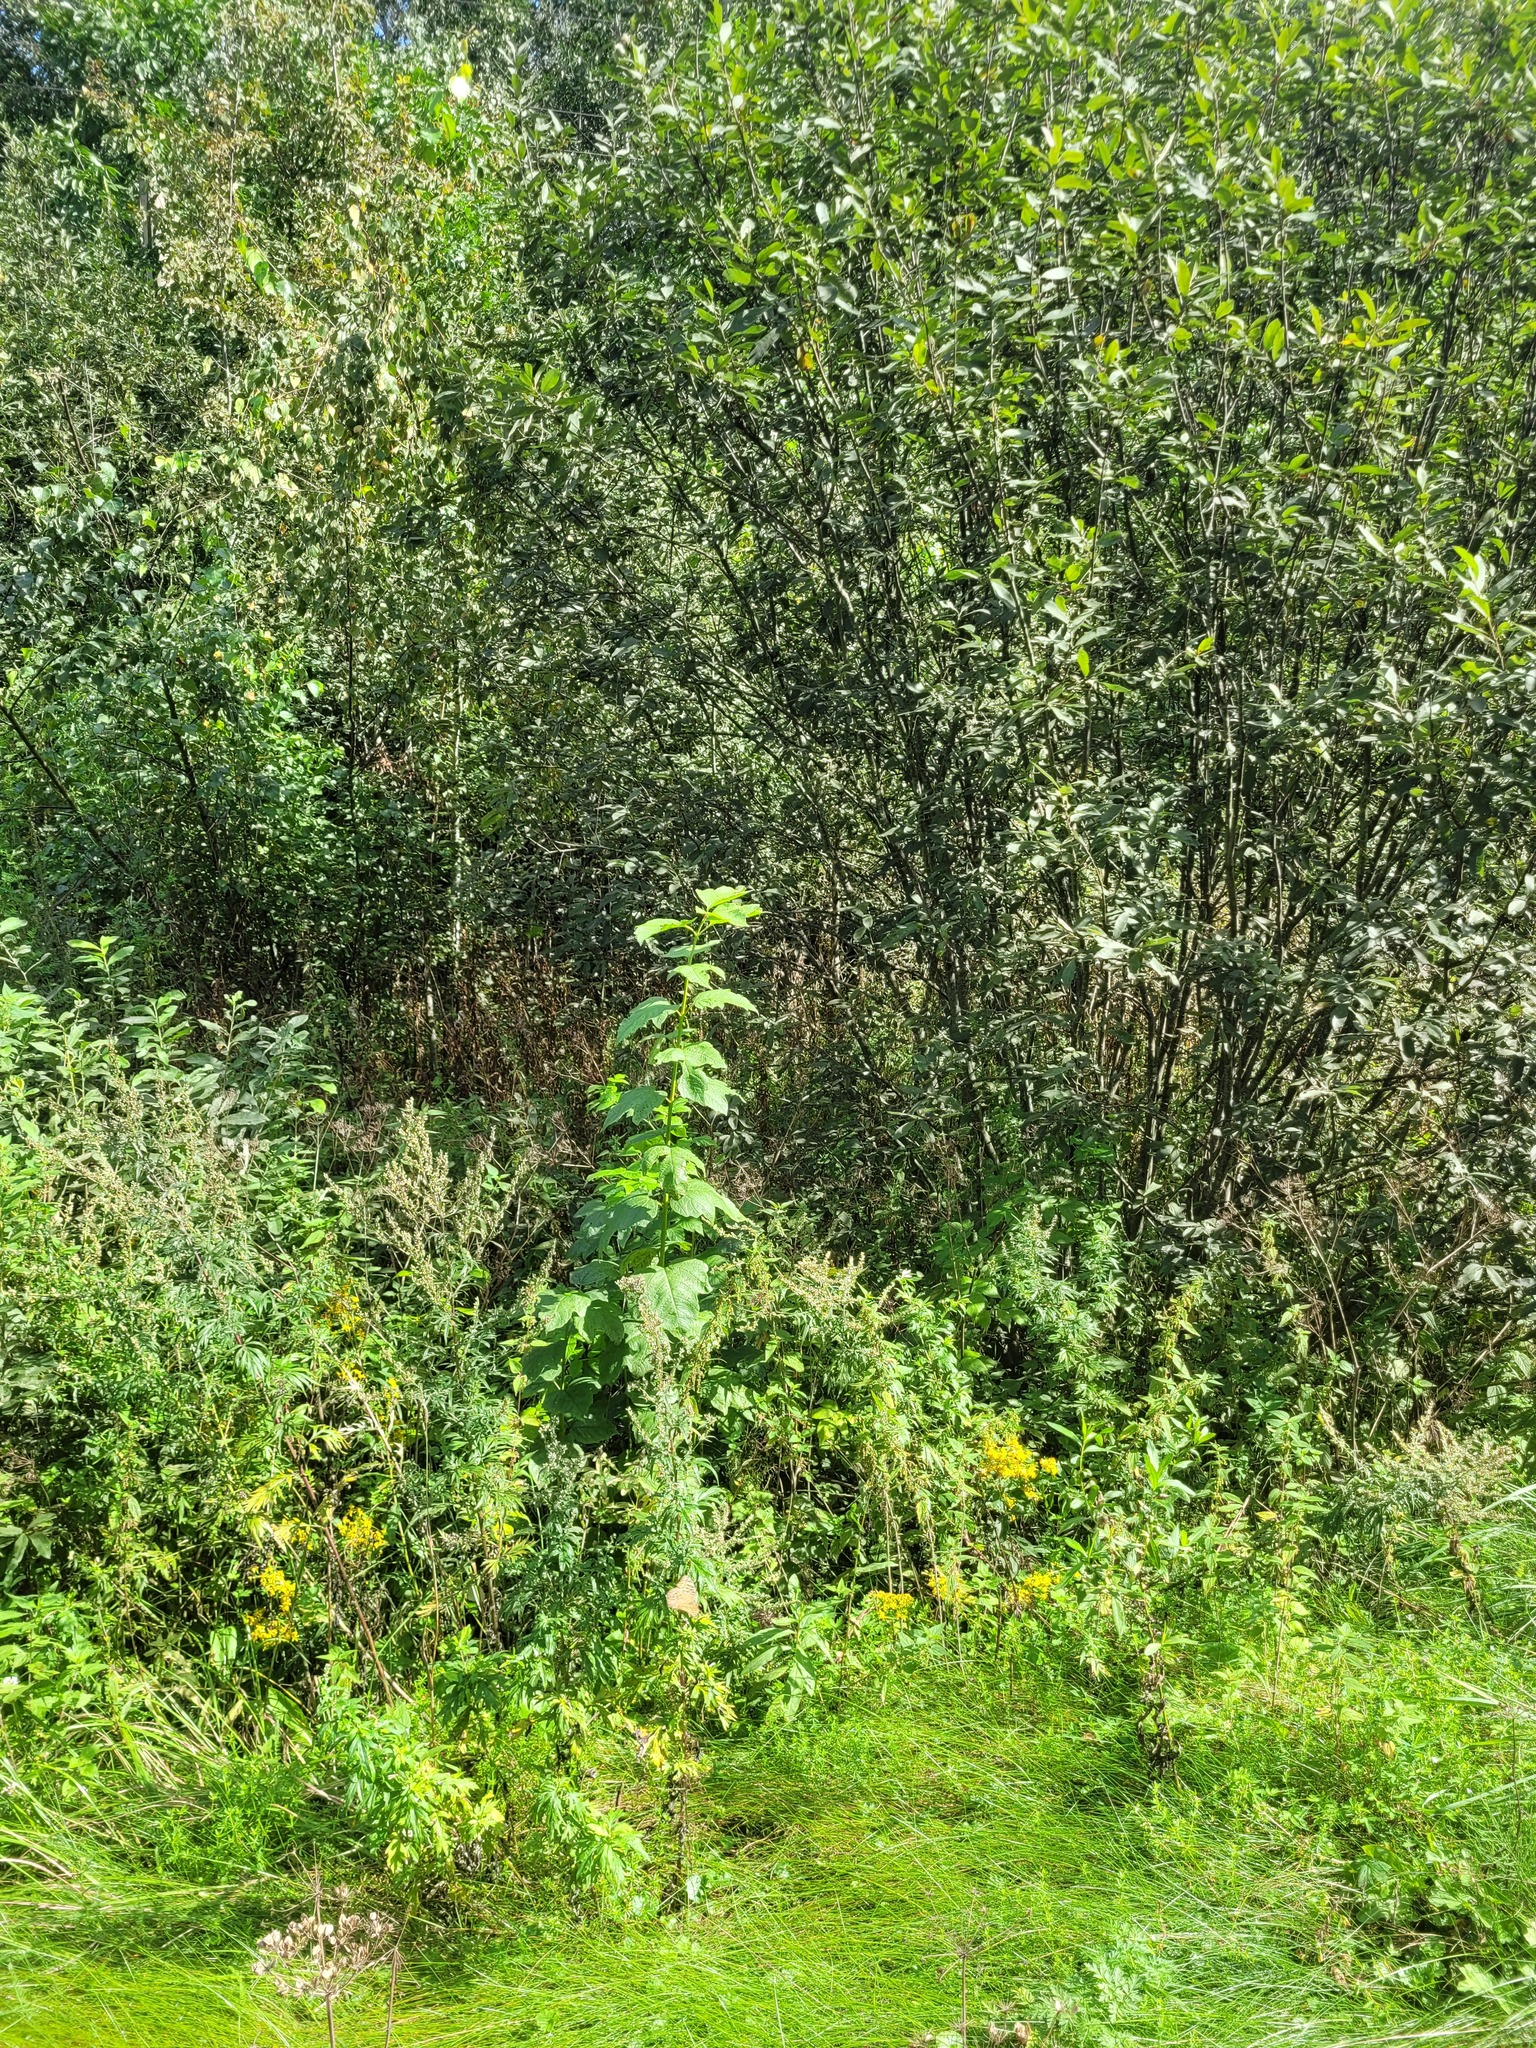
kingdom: Plantae
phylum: Tracheophyta
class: Magnoliopsida
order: Dipsacales
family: Viburnaceae
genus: Viburnum
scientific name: Viburnum opulus
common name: Guelder-rose
